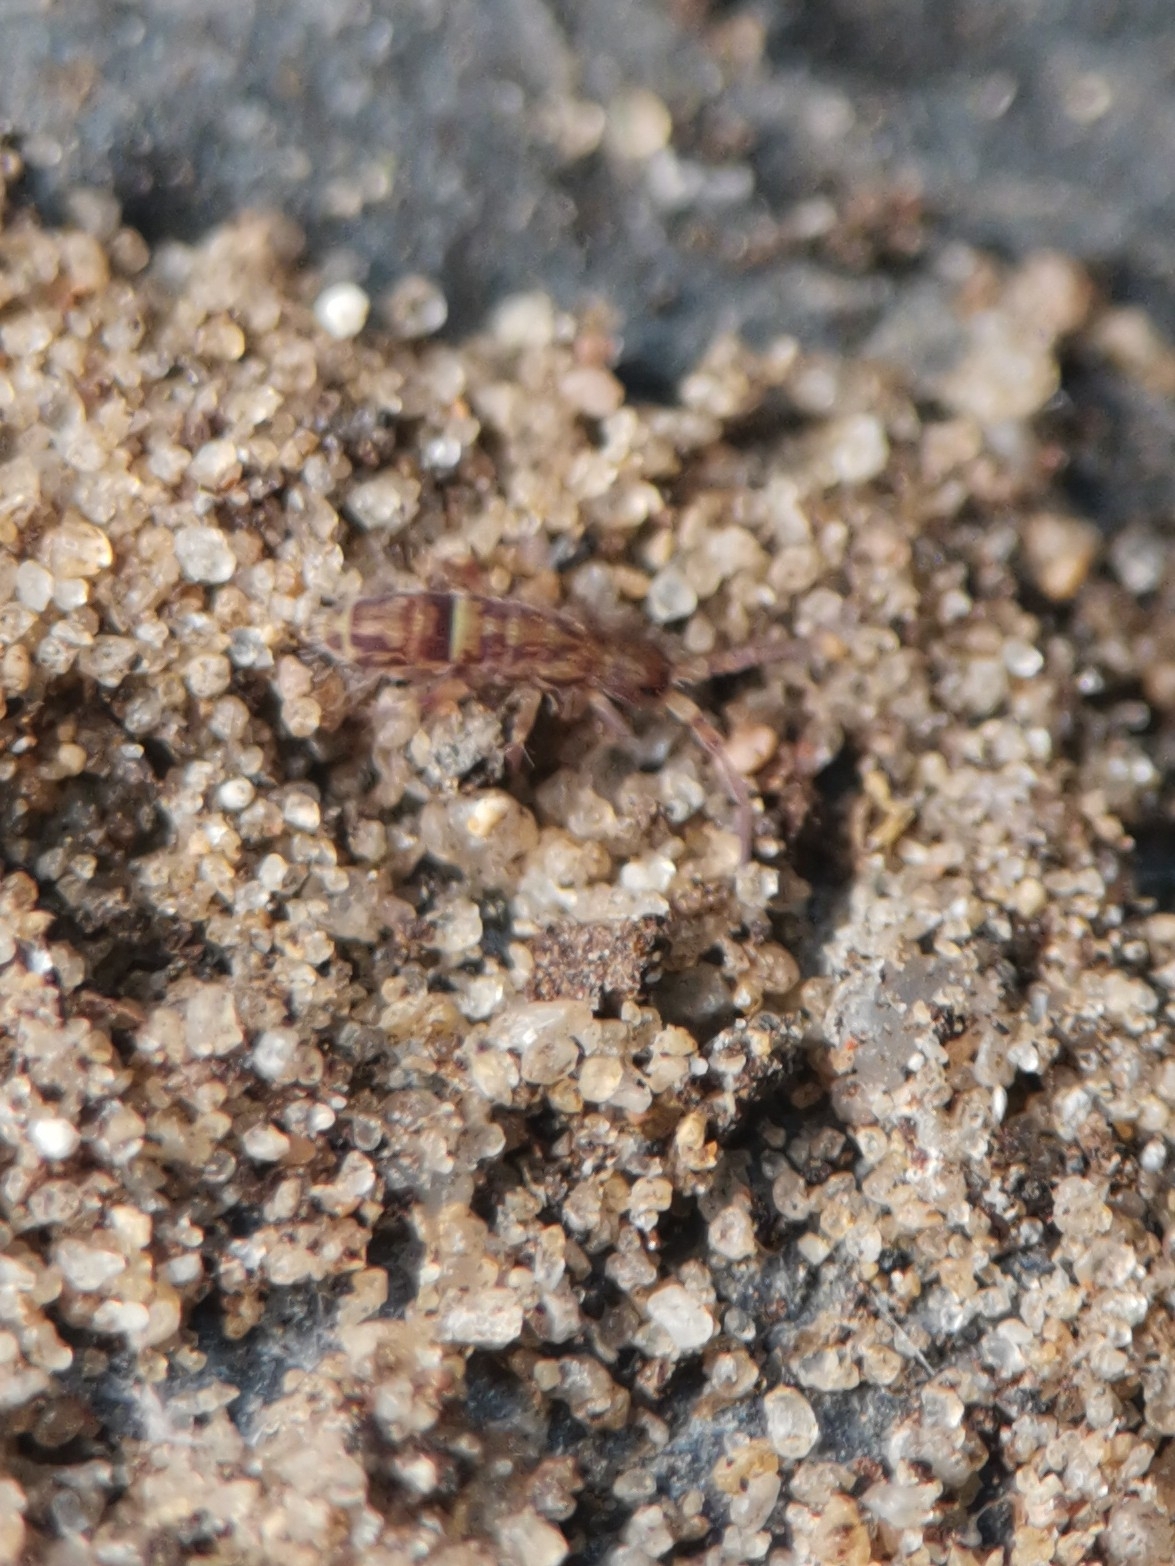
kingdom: Animalia
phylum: Arthropoda
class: Collembola
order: Entomobryomorpha
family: Orchesellidae
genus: Orchesella
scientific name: Orchesella cincta
